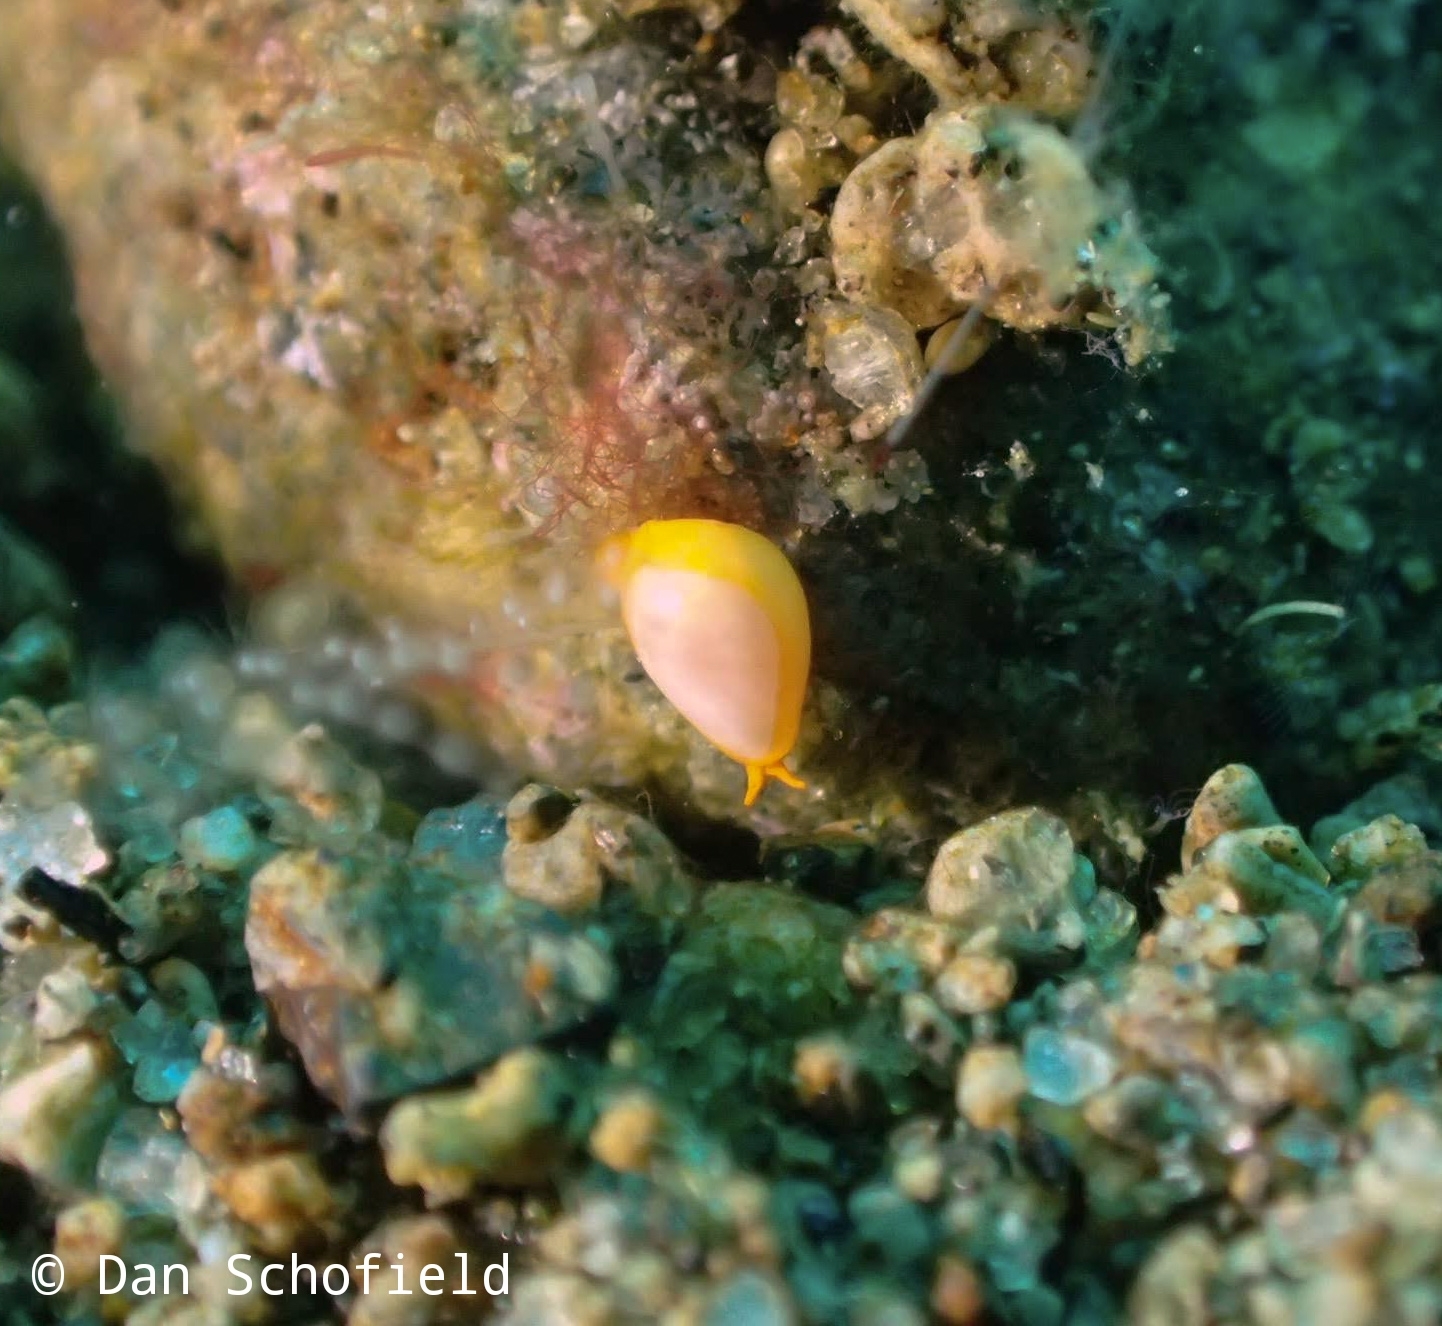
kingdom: Animalia
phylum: Mollusca
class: Gastropoda
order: Neogastropoda
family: Cystiscidae
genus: Cystiscus
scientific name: Cystiscus minutissimus
